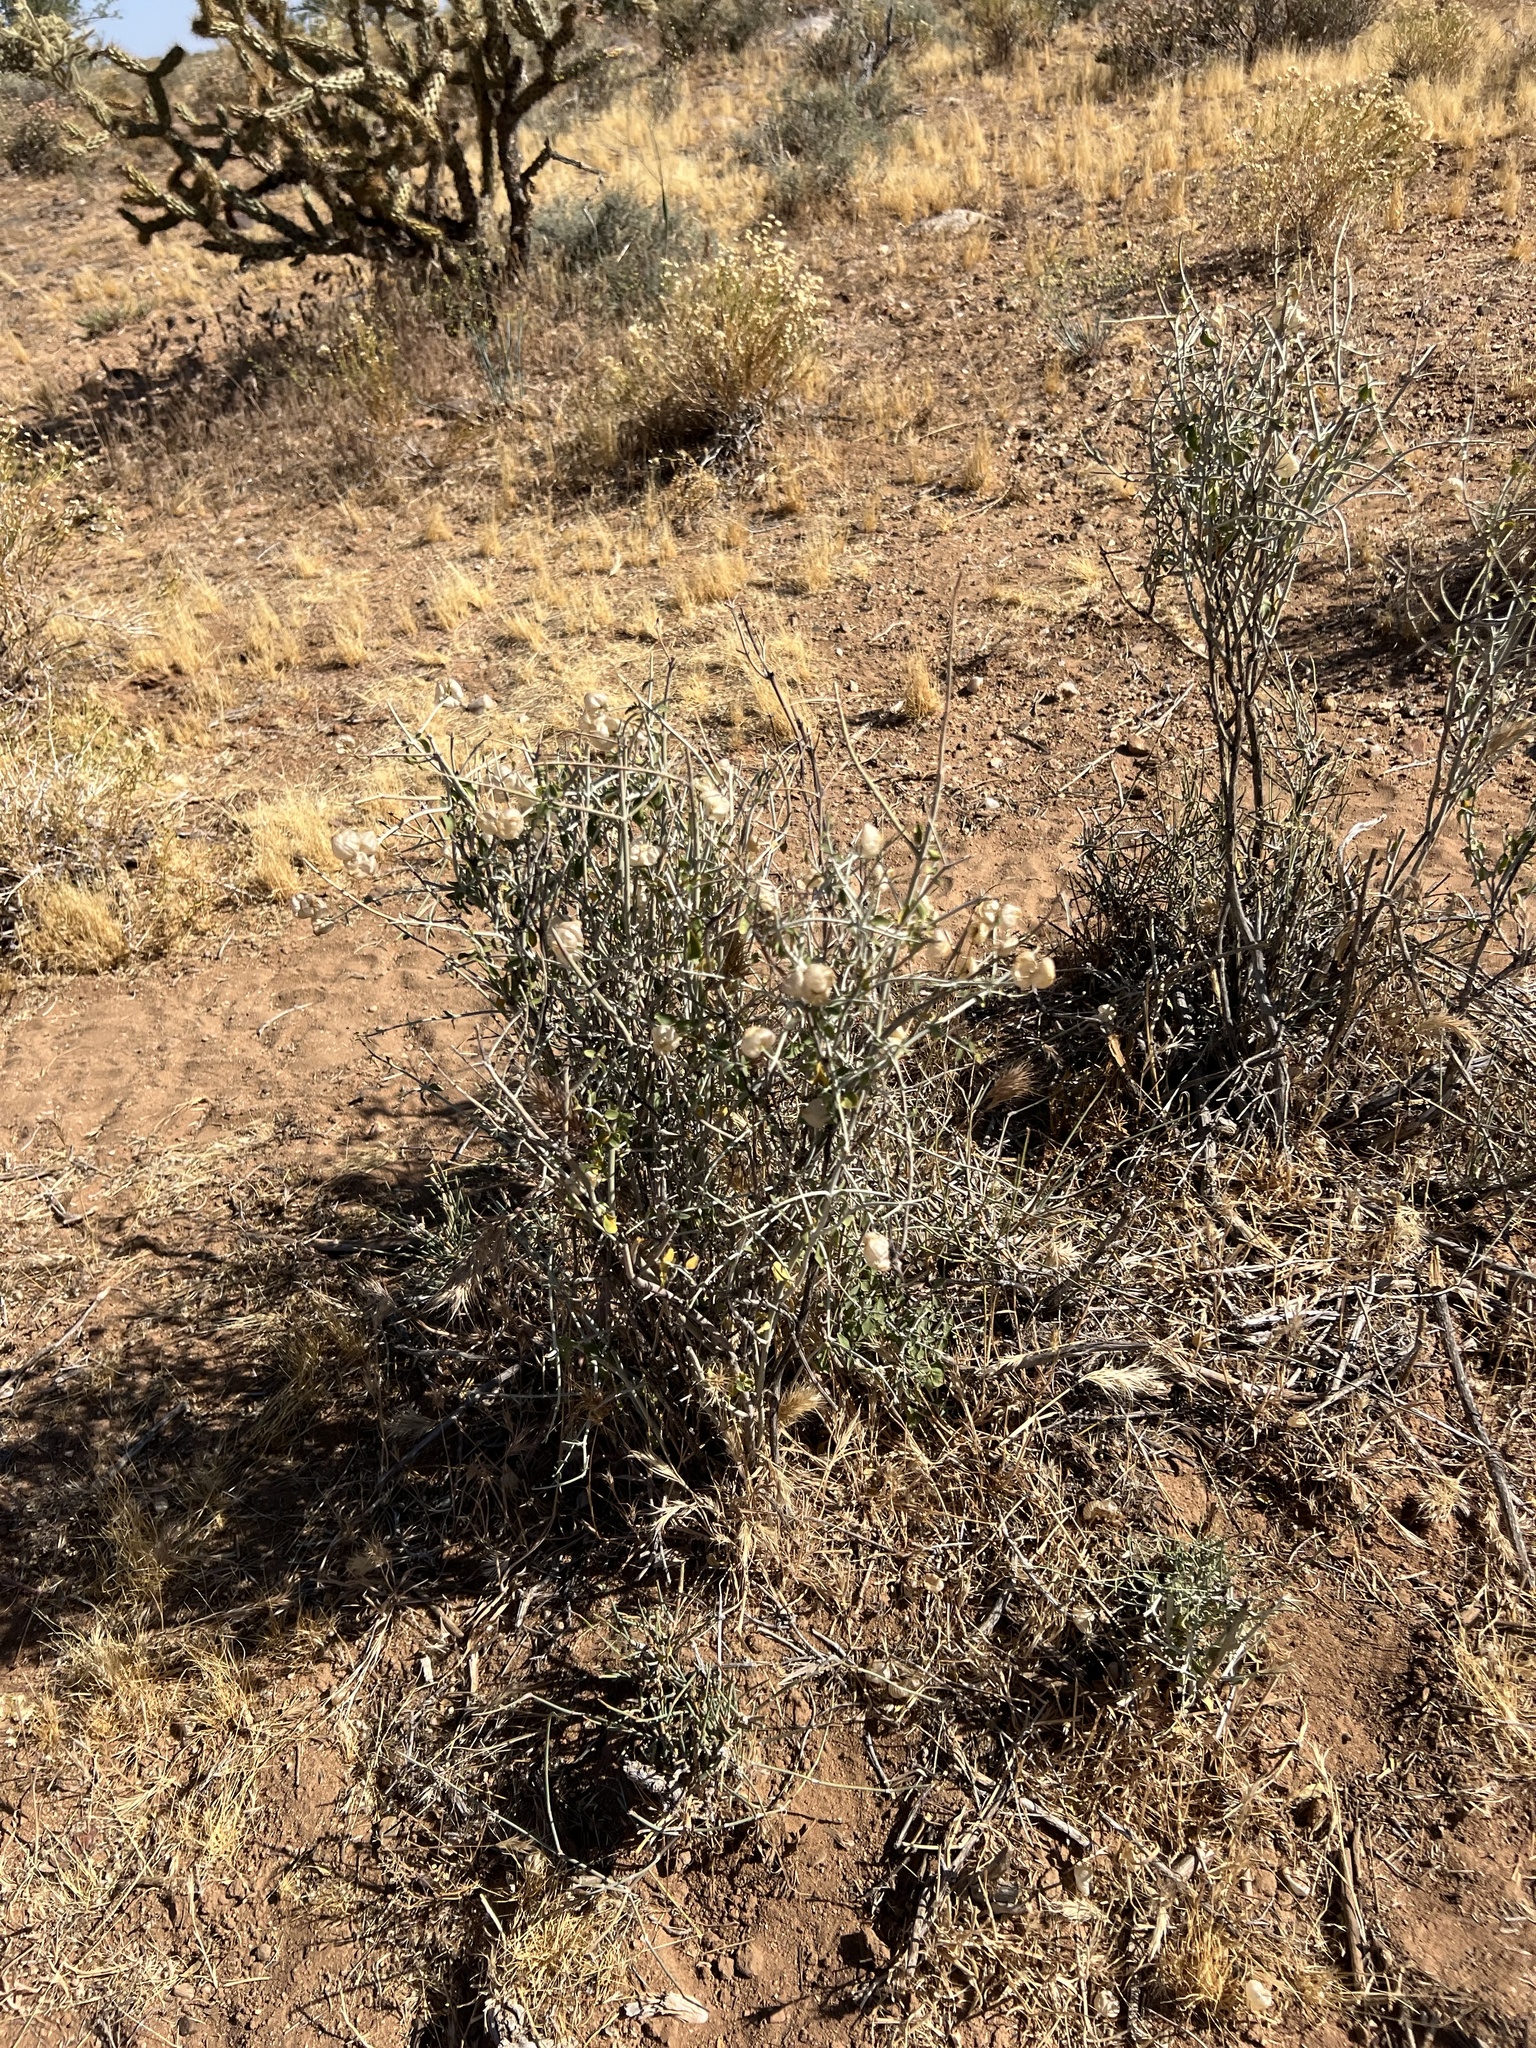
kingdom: Plantae
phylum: Tracheophyta
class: Magnoliopsida
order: Lamiales
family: Lamiaceae
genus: Scutellaria
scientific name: Scutellaria mexicana
